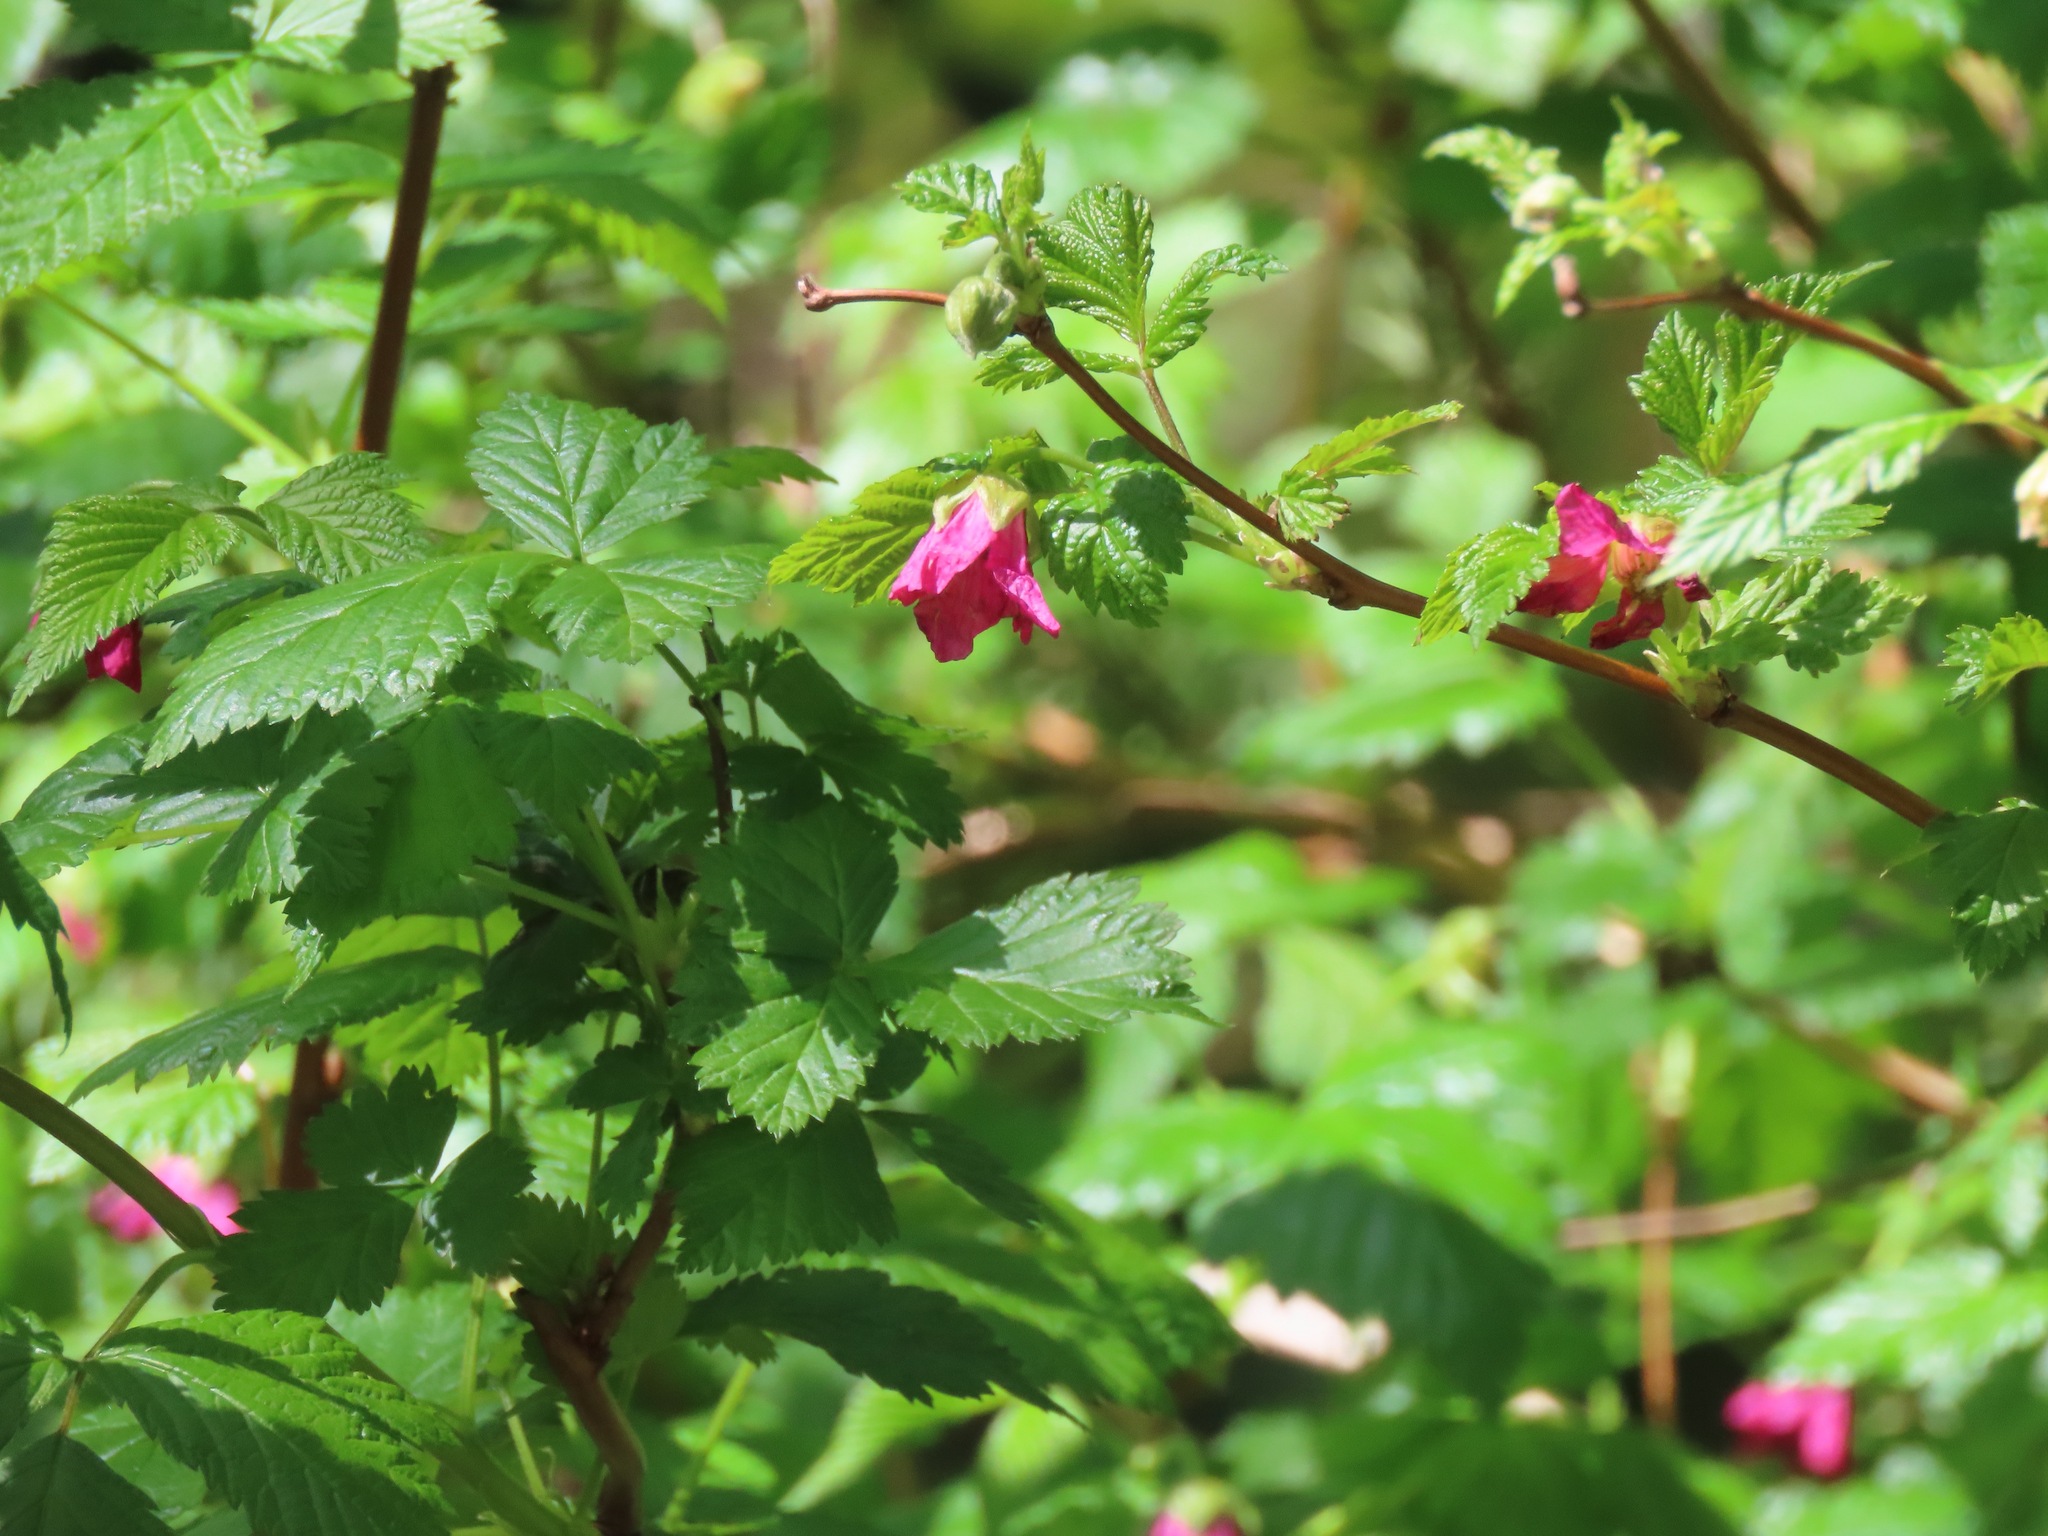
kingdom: Plantae
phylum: Tracheophyta
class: Magnoliopsida
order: Rosales
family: Rosaceae
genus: Rubus
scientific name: Rubus spectabilis
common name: Salmonberry
